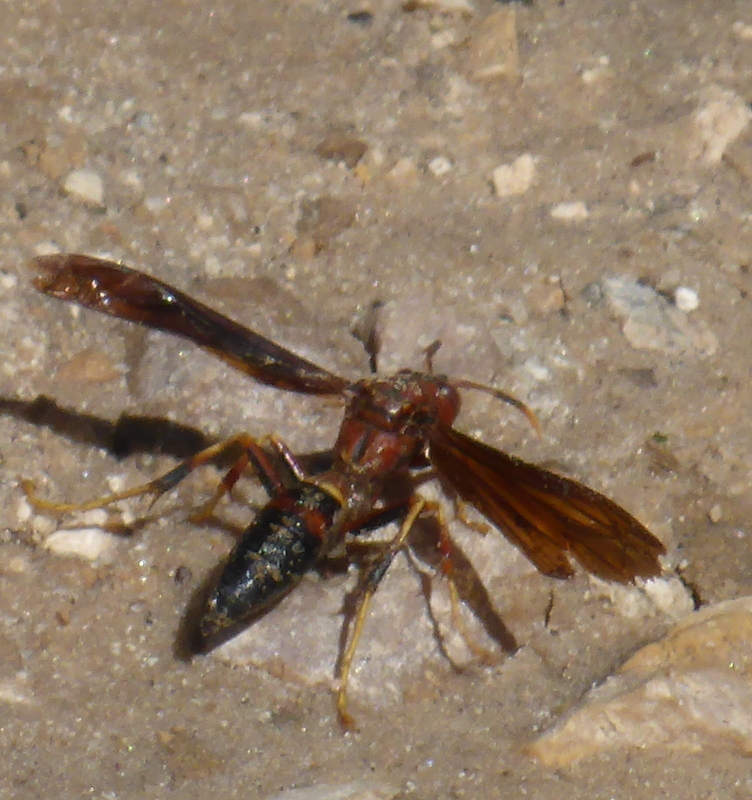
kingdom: Animalia
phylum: Arthropoda
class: Insecta
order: Hymenoptera
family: Eumenidae
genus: Polistes
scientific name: Polistes annularis
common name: Ringed paper wasp
